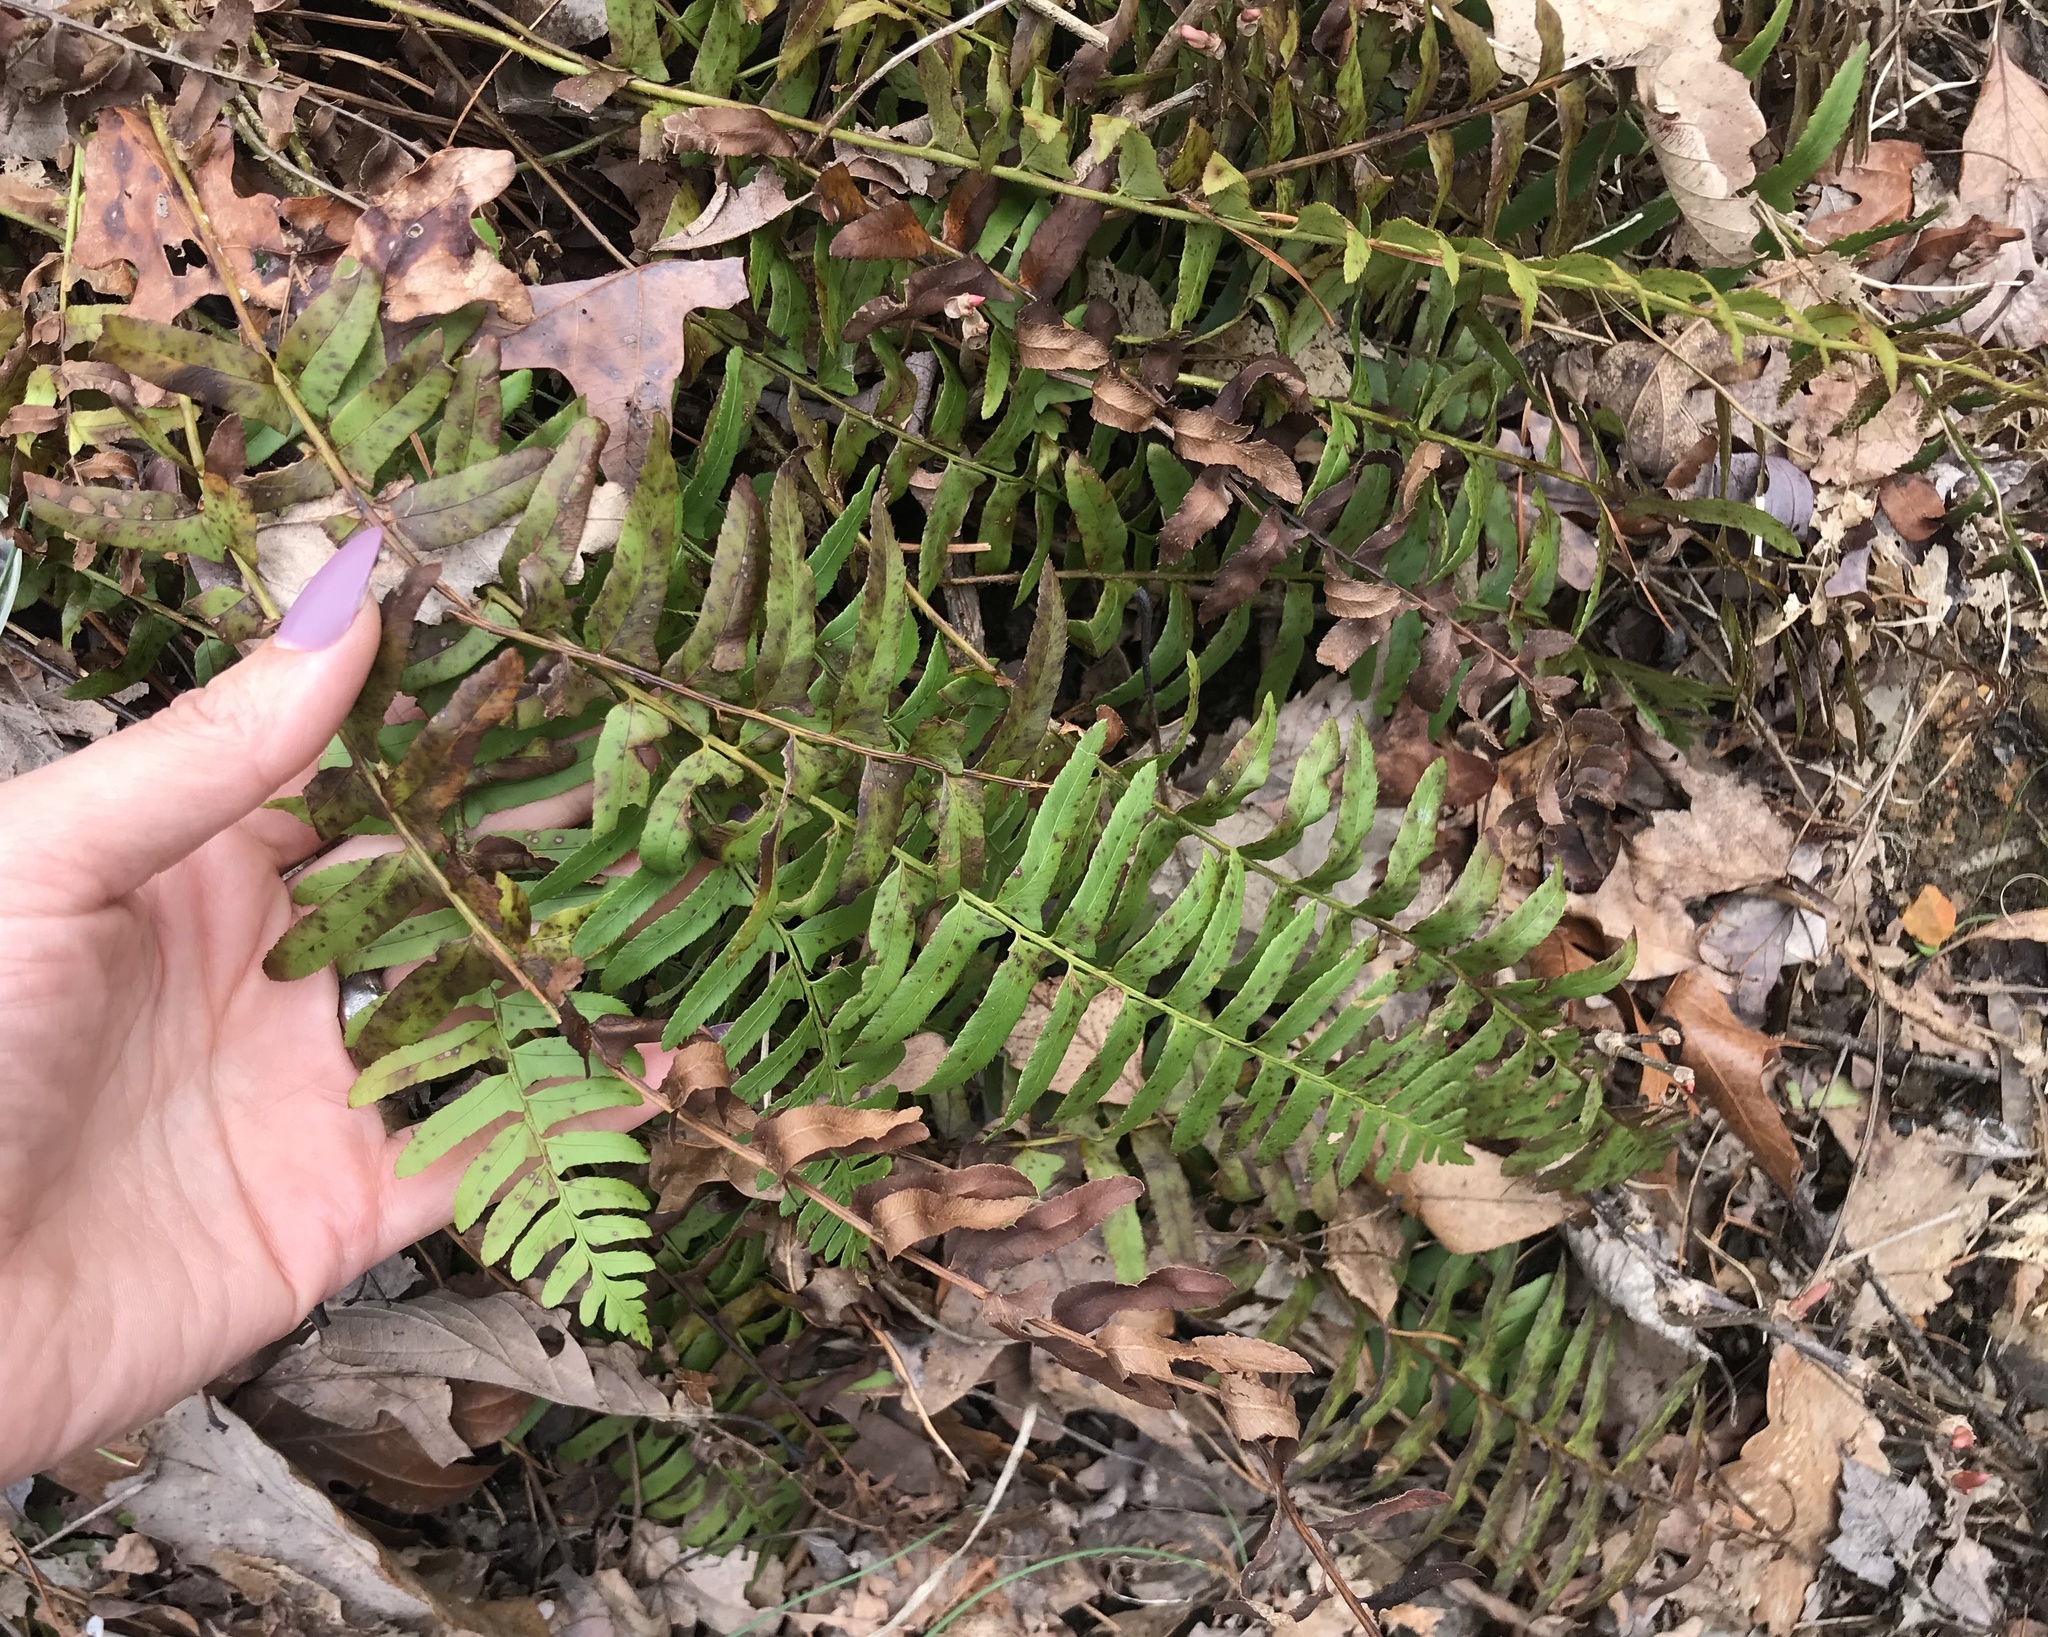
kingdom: Plantae
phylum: Tracheophyta
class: Polypodiopsida
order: Polypodiales
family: Dryopteridaceae
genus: Polystichum
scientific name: Polystichum acrostichoides
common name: Christmas fern
